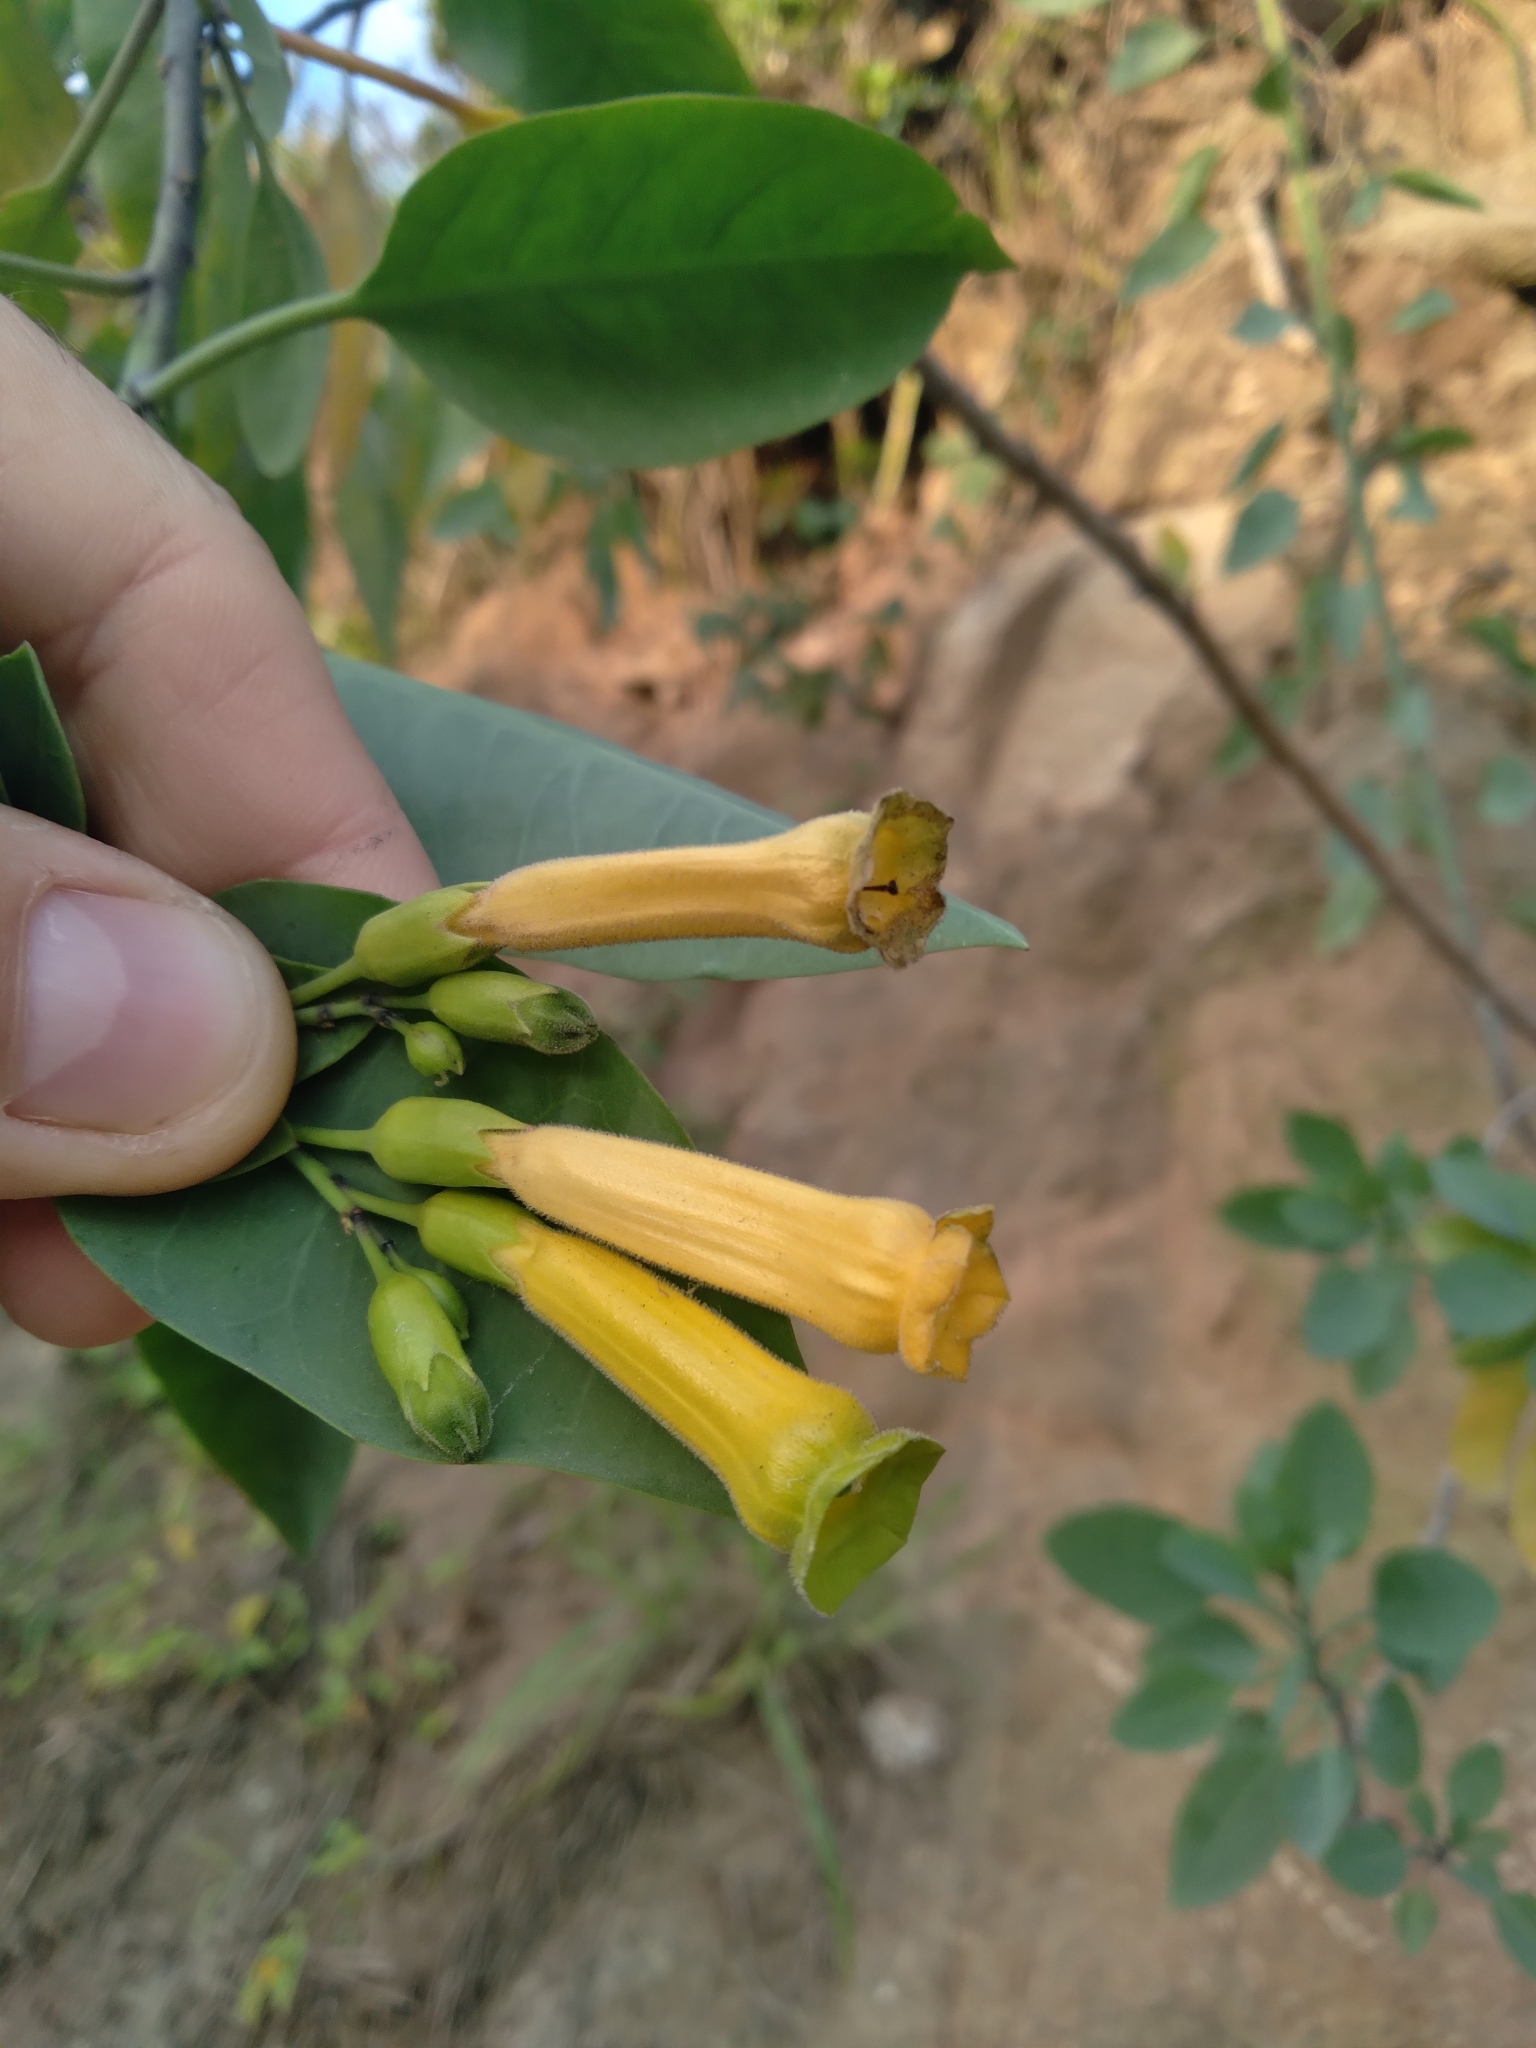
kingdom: Plantae
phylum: Tracheophyta
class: Magnoliopsida
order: Solanales
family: Solanaceae
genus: Nicotiana
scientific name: Nicotiana glauca
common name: Tree tobacco
